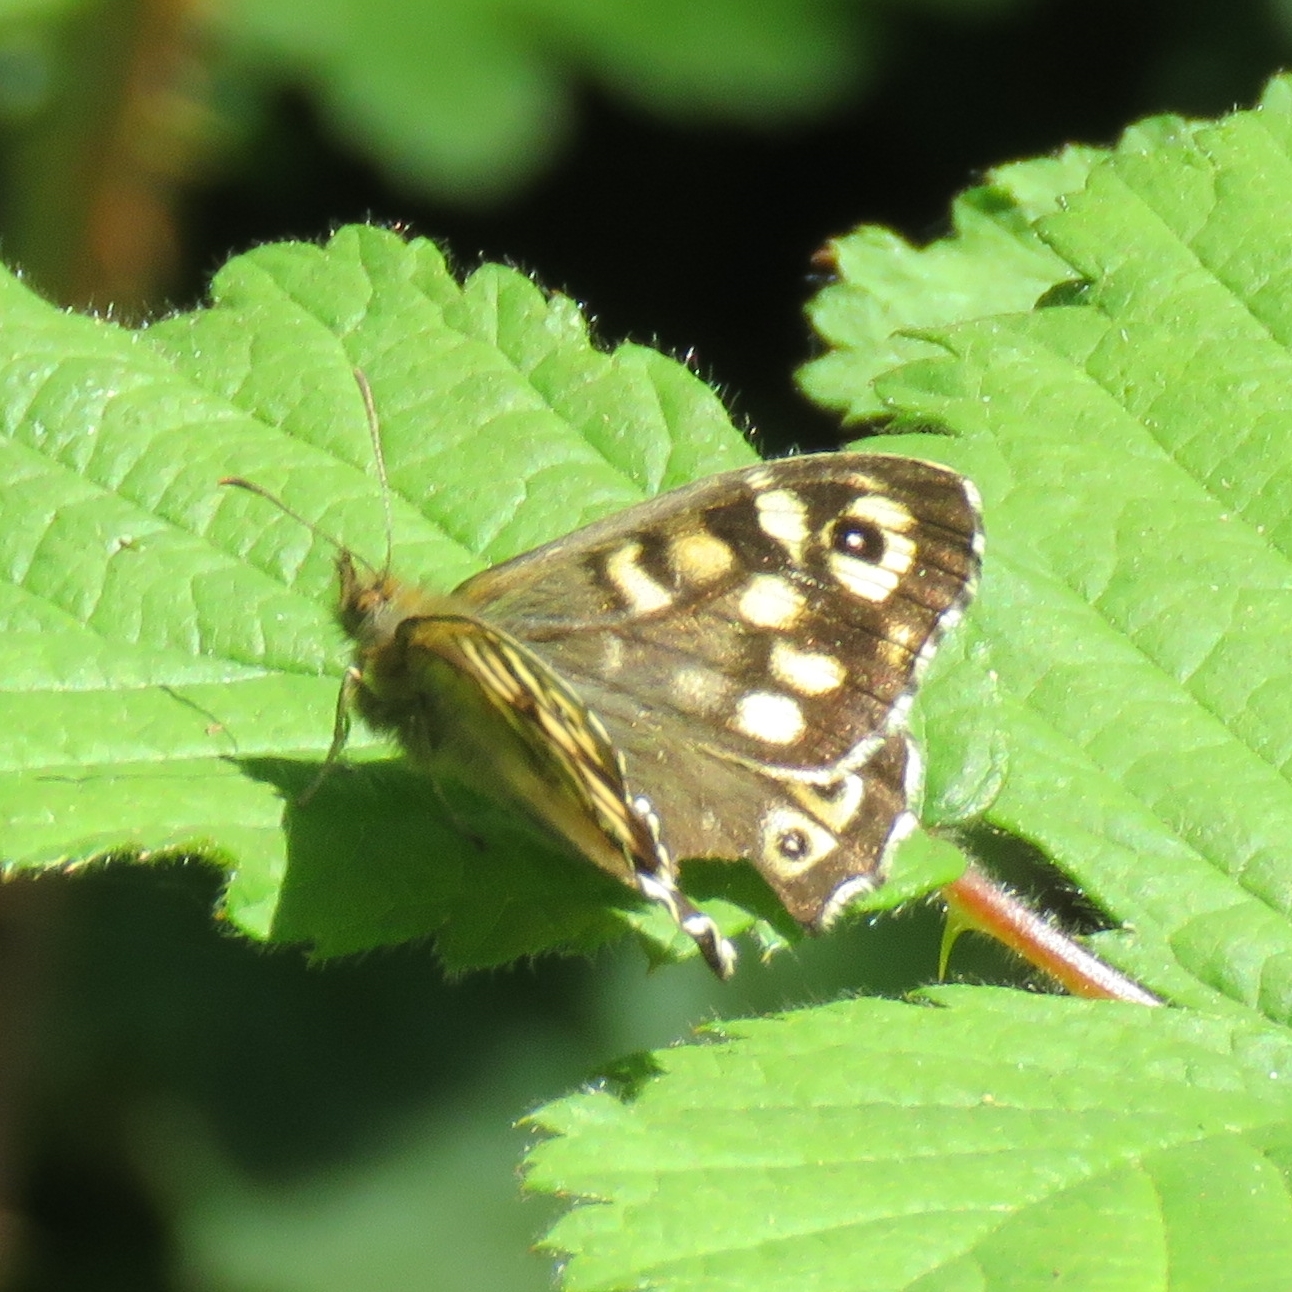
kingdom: Animalia
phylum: Arthropoda
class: Insecta
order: Lepidoptera
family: Nymphalidae
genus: Pararge
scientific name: Pararge aegeria
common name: Speckled wood
